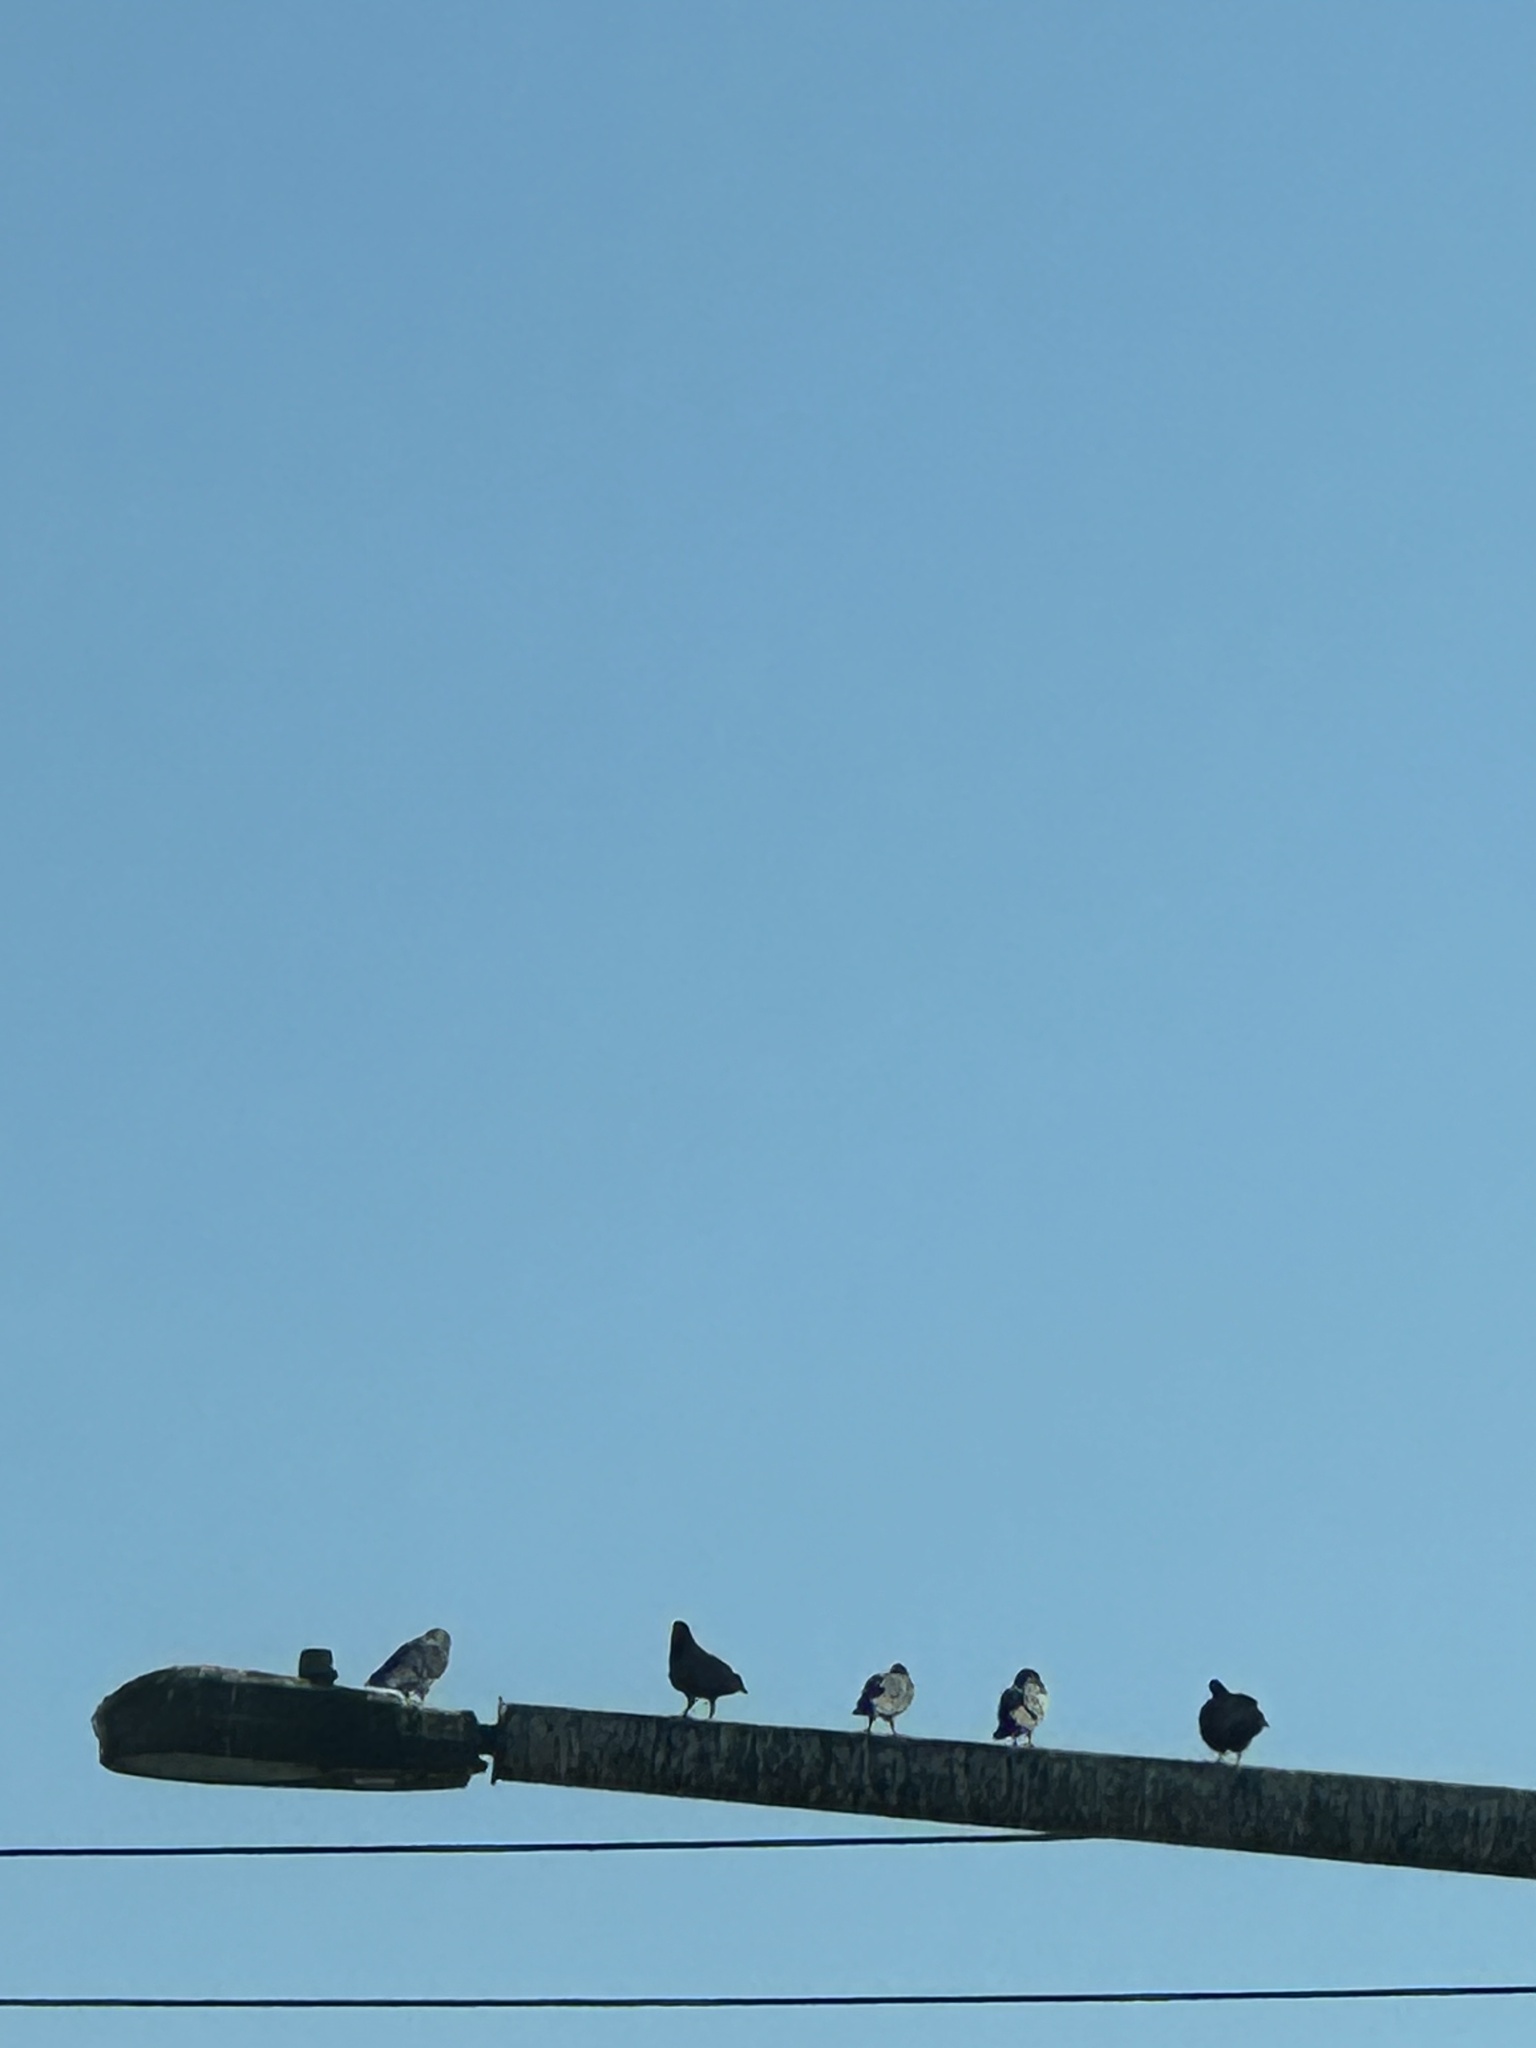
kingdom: Animalia
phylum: Chordata
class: Aves
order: Columbiformes
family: Columbidae
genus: Columba
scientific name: Columba livia
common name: Rock pigeon
